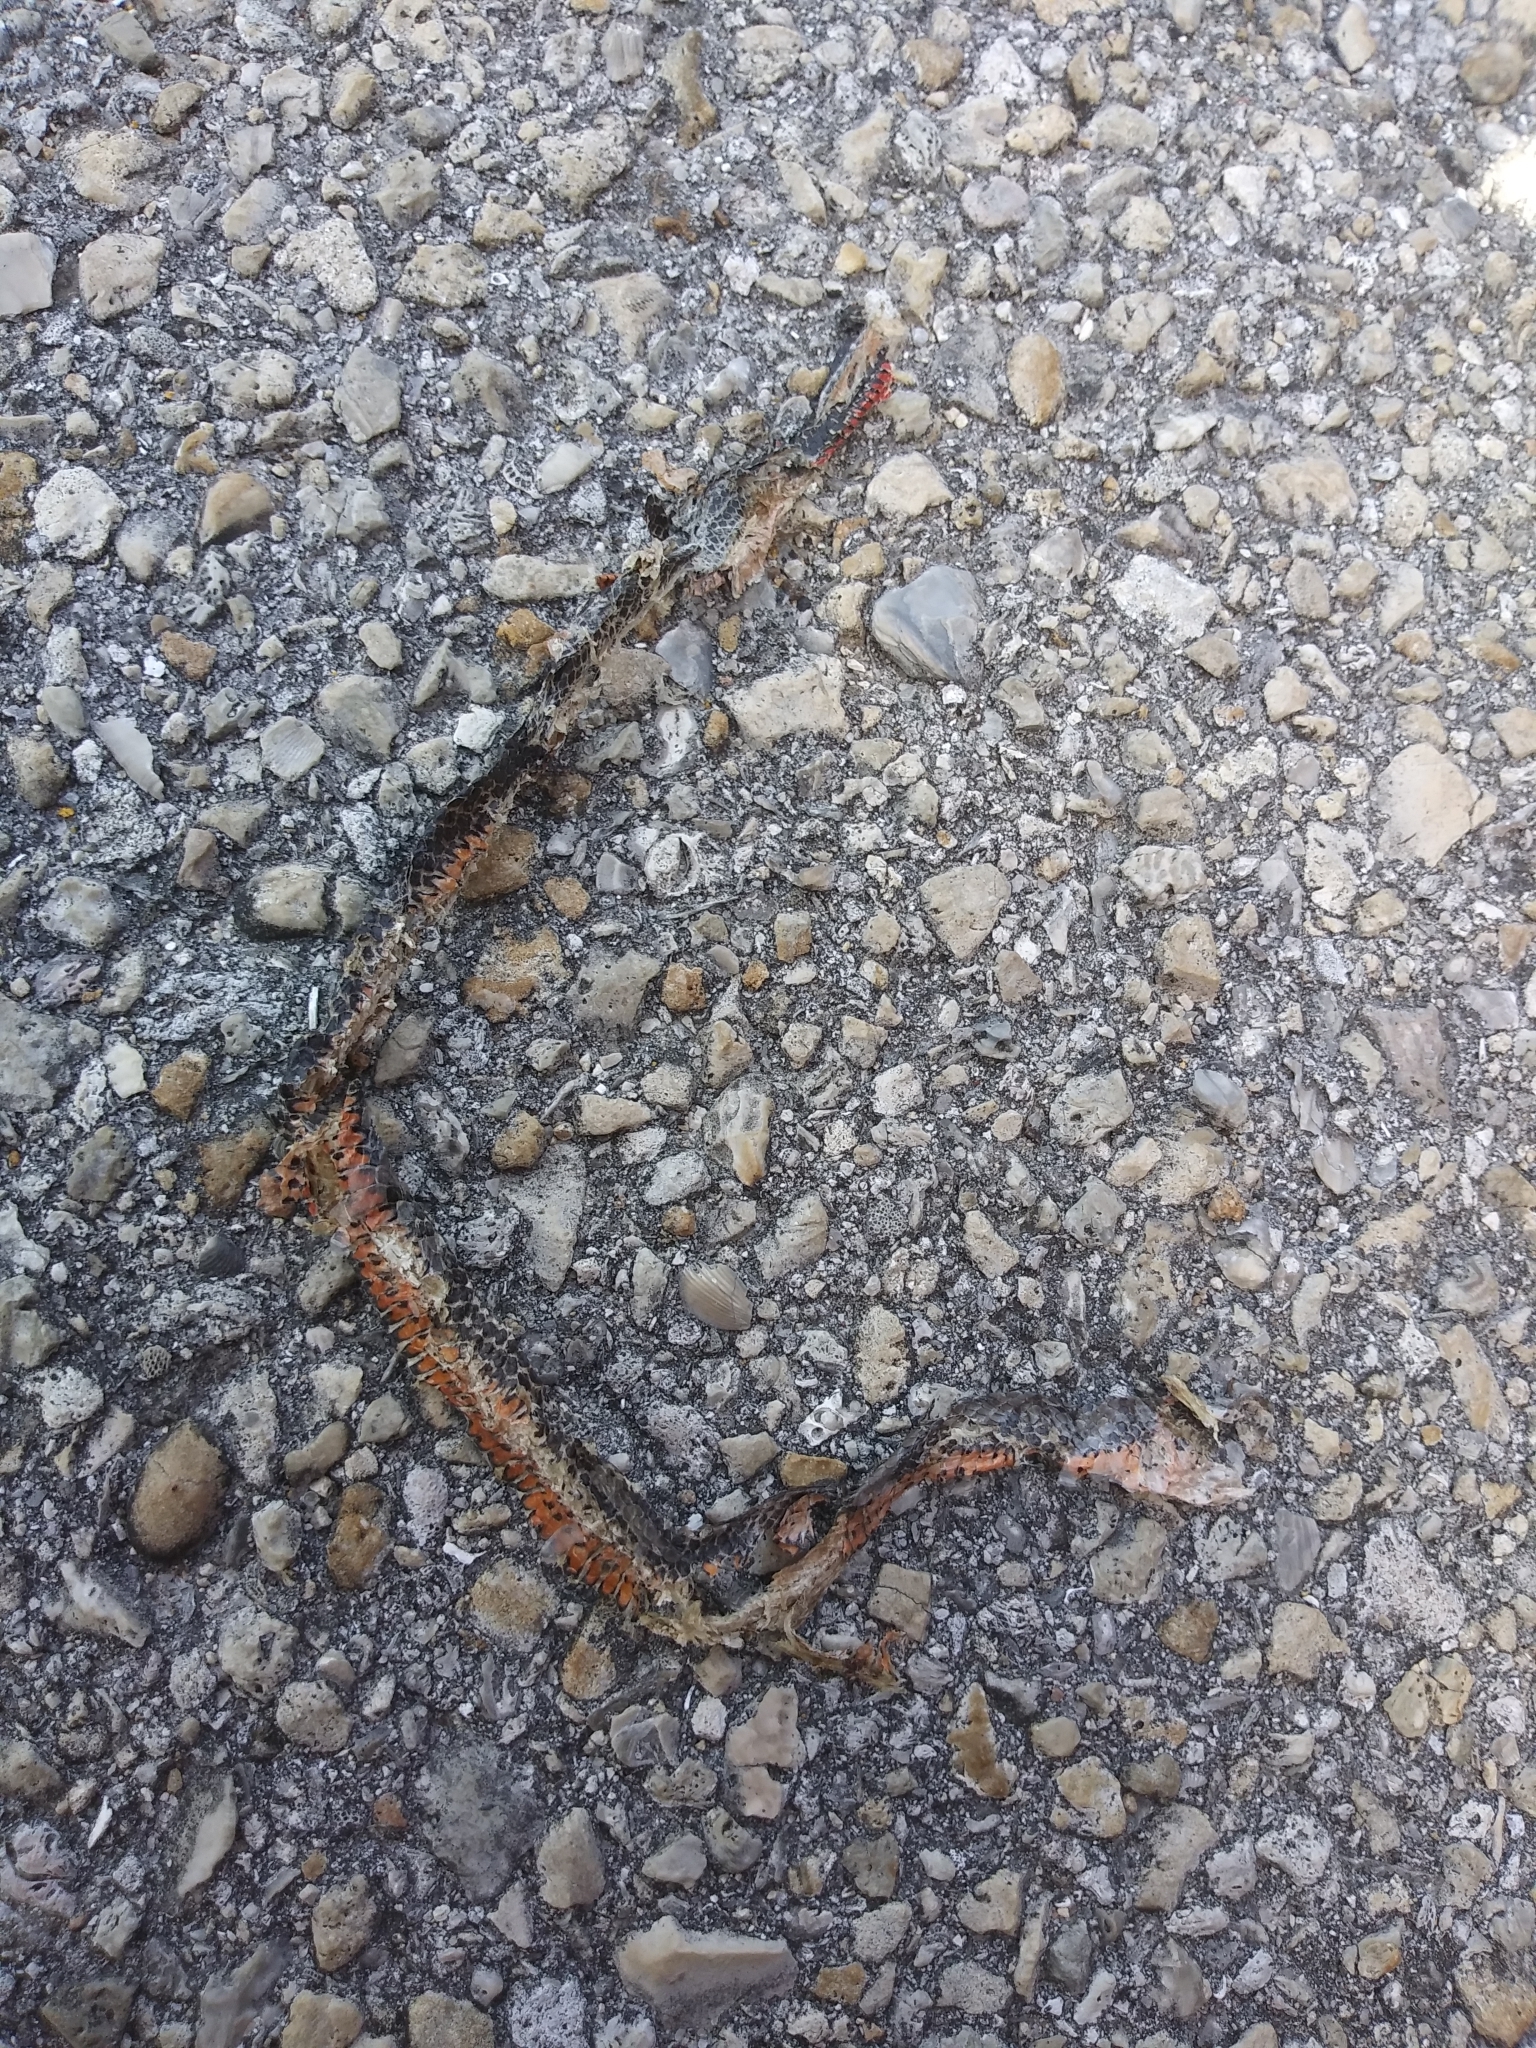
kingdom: Animalia
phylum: Chordata
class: Squamata
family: Colubridae
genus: Diadophis
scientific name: Diadophis punctatus
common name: Ringneck snake
